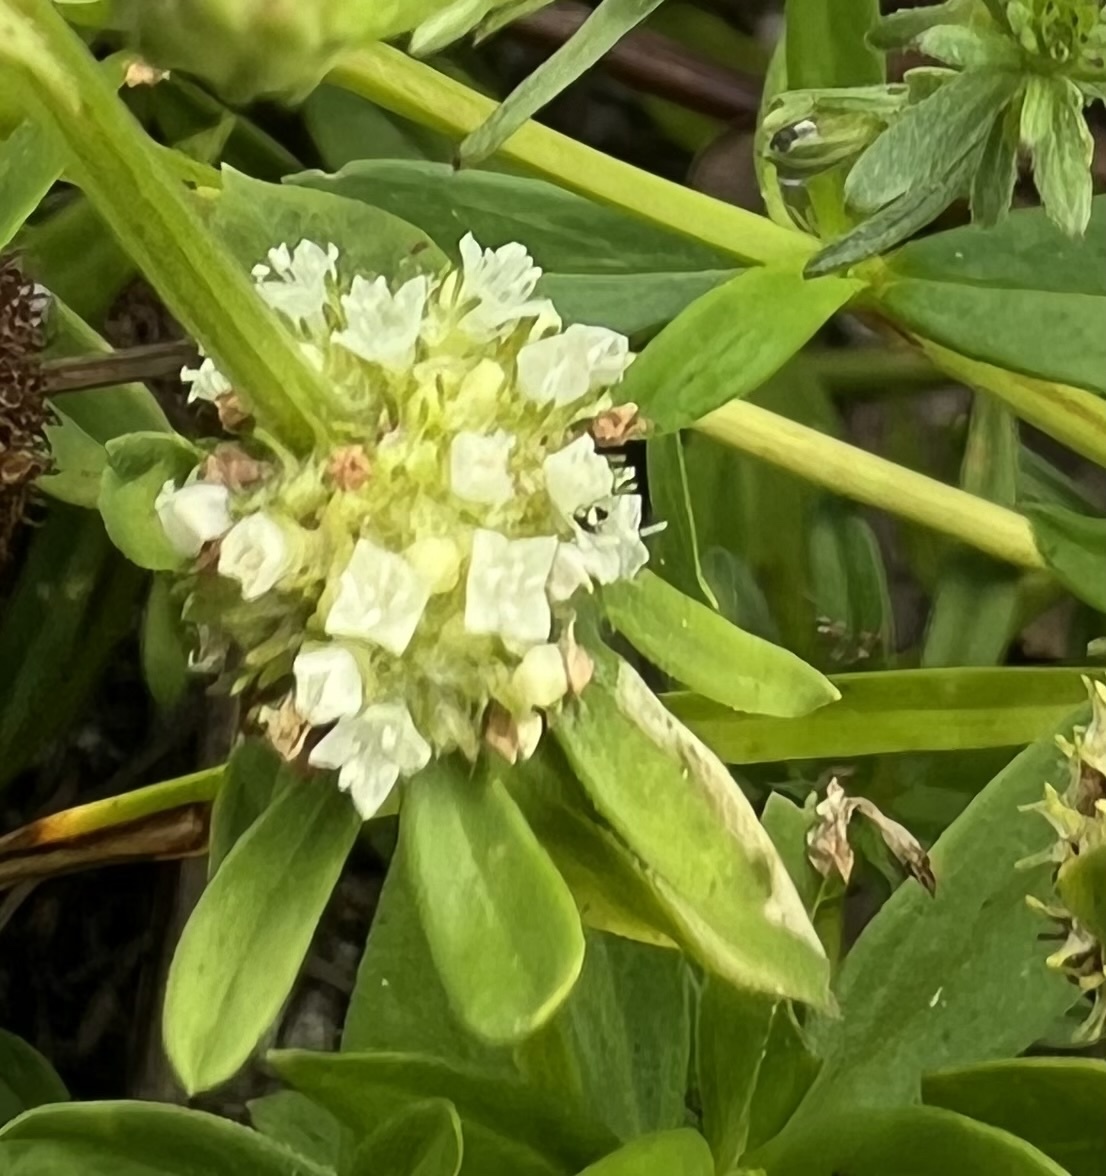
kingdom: Plantae
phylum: Tracheophyta
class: Magnoliopsida
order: Gentianales
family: Rubiaceae
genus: Spermacoce
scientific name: Spermacoce verticillata
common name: Shrubby false buttonweed
